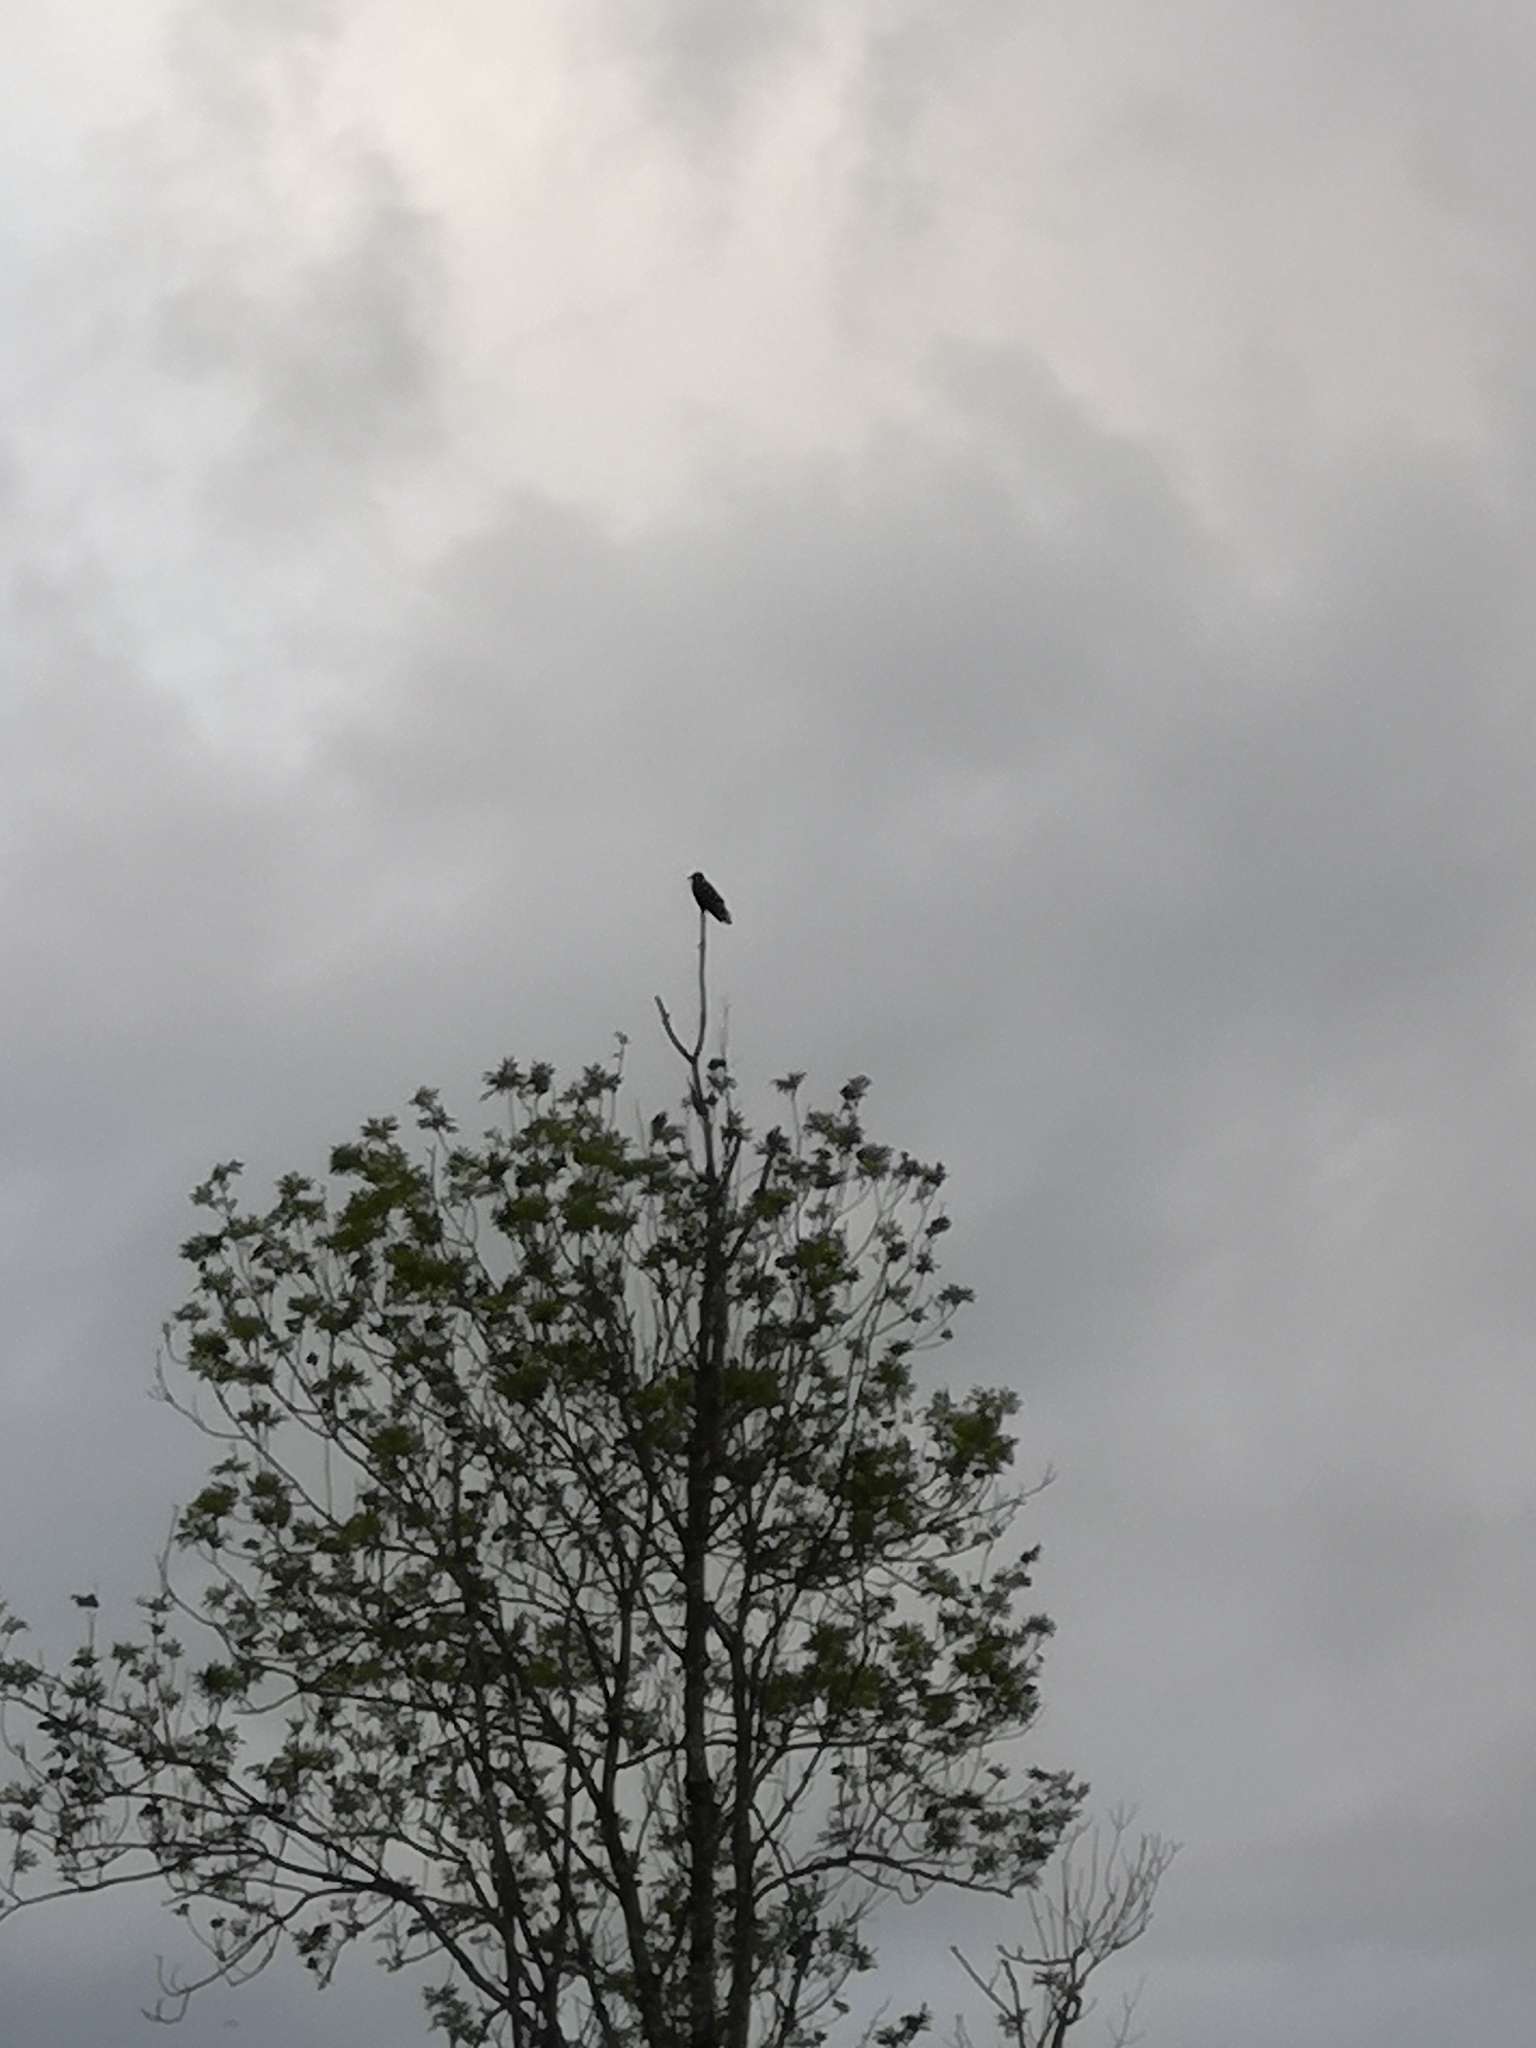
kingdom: Animalia
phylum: Chordata
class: Aves
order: Cuculiformes
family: Cuculidae
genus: Cuculus
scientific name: Cuculus canorus
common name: Common cuckoo
